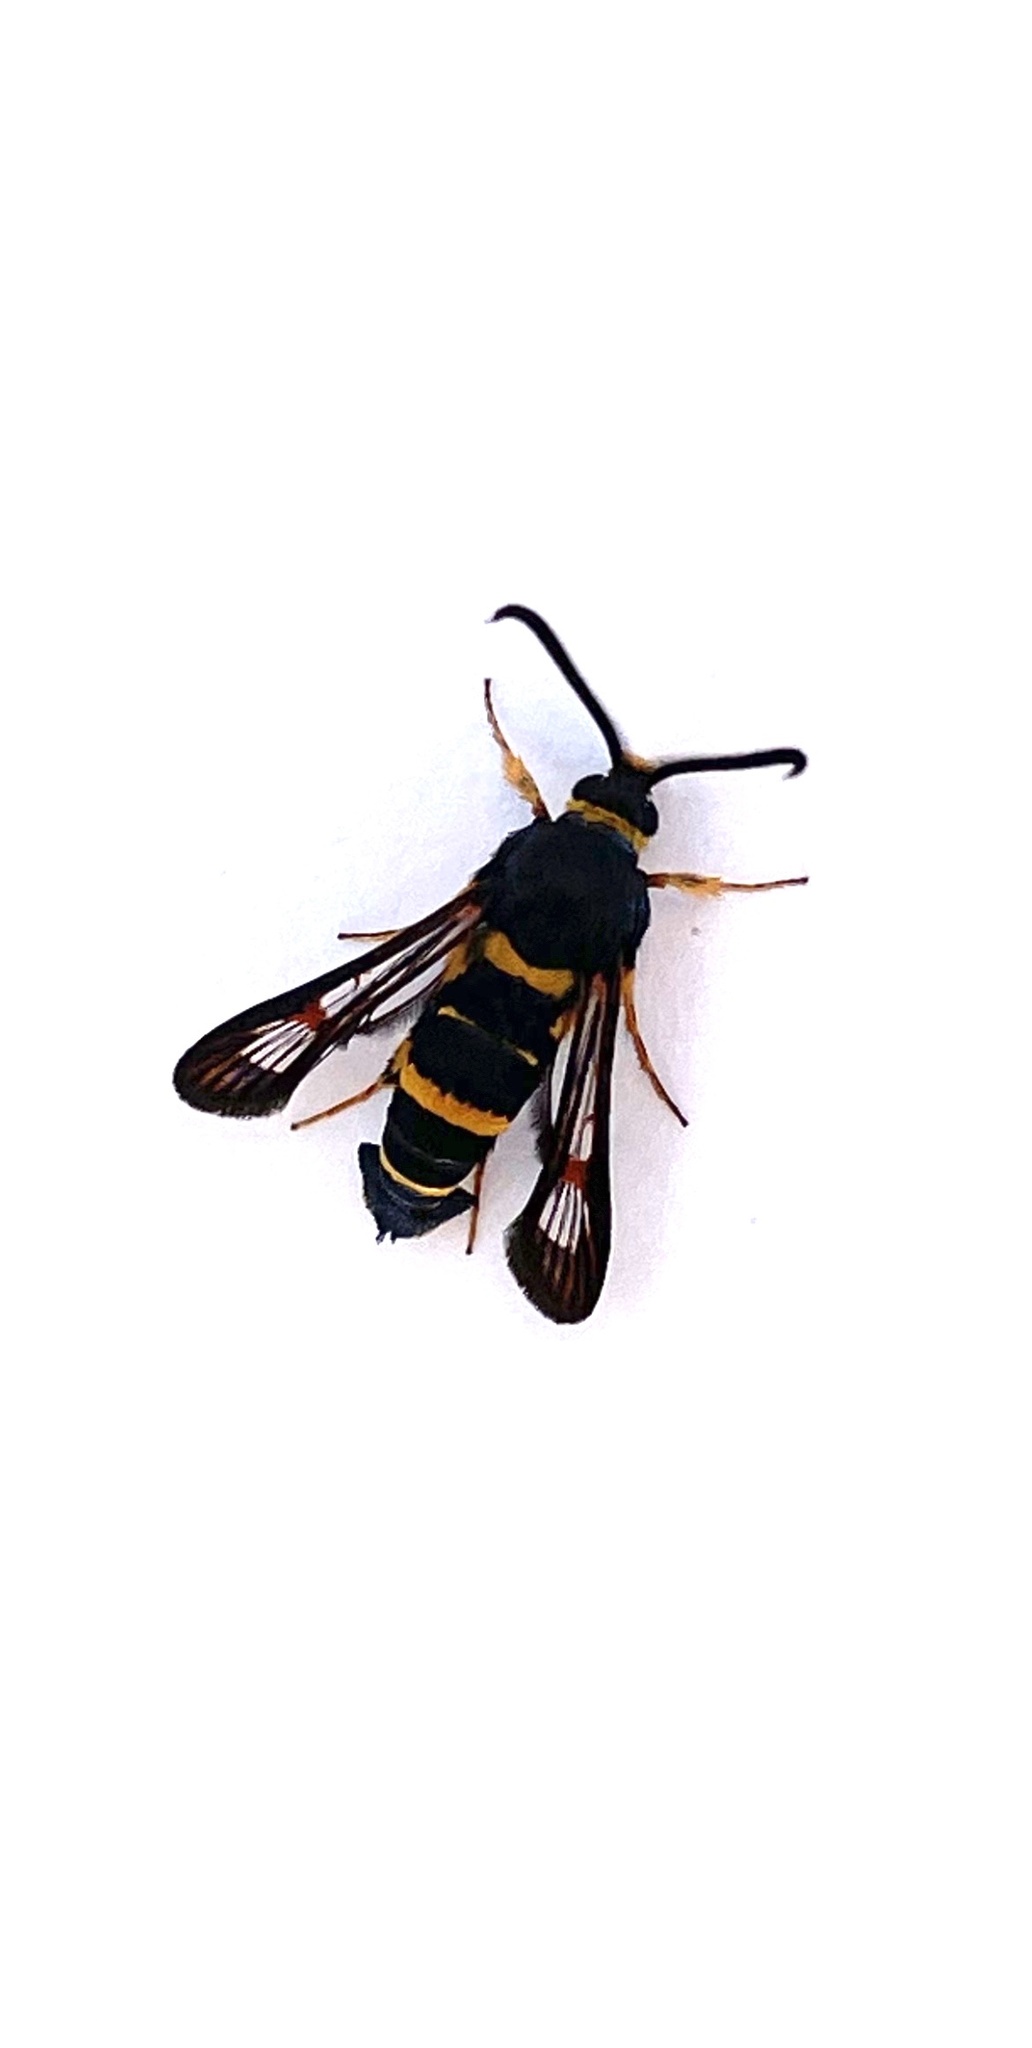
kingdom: Animalia
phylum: Arthropoda
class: Insecta
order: Lepidoptera
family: Sesiidae
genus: Synanthedon
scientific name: Synanthedon decipiens
